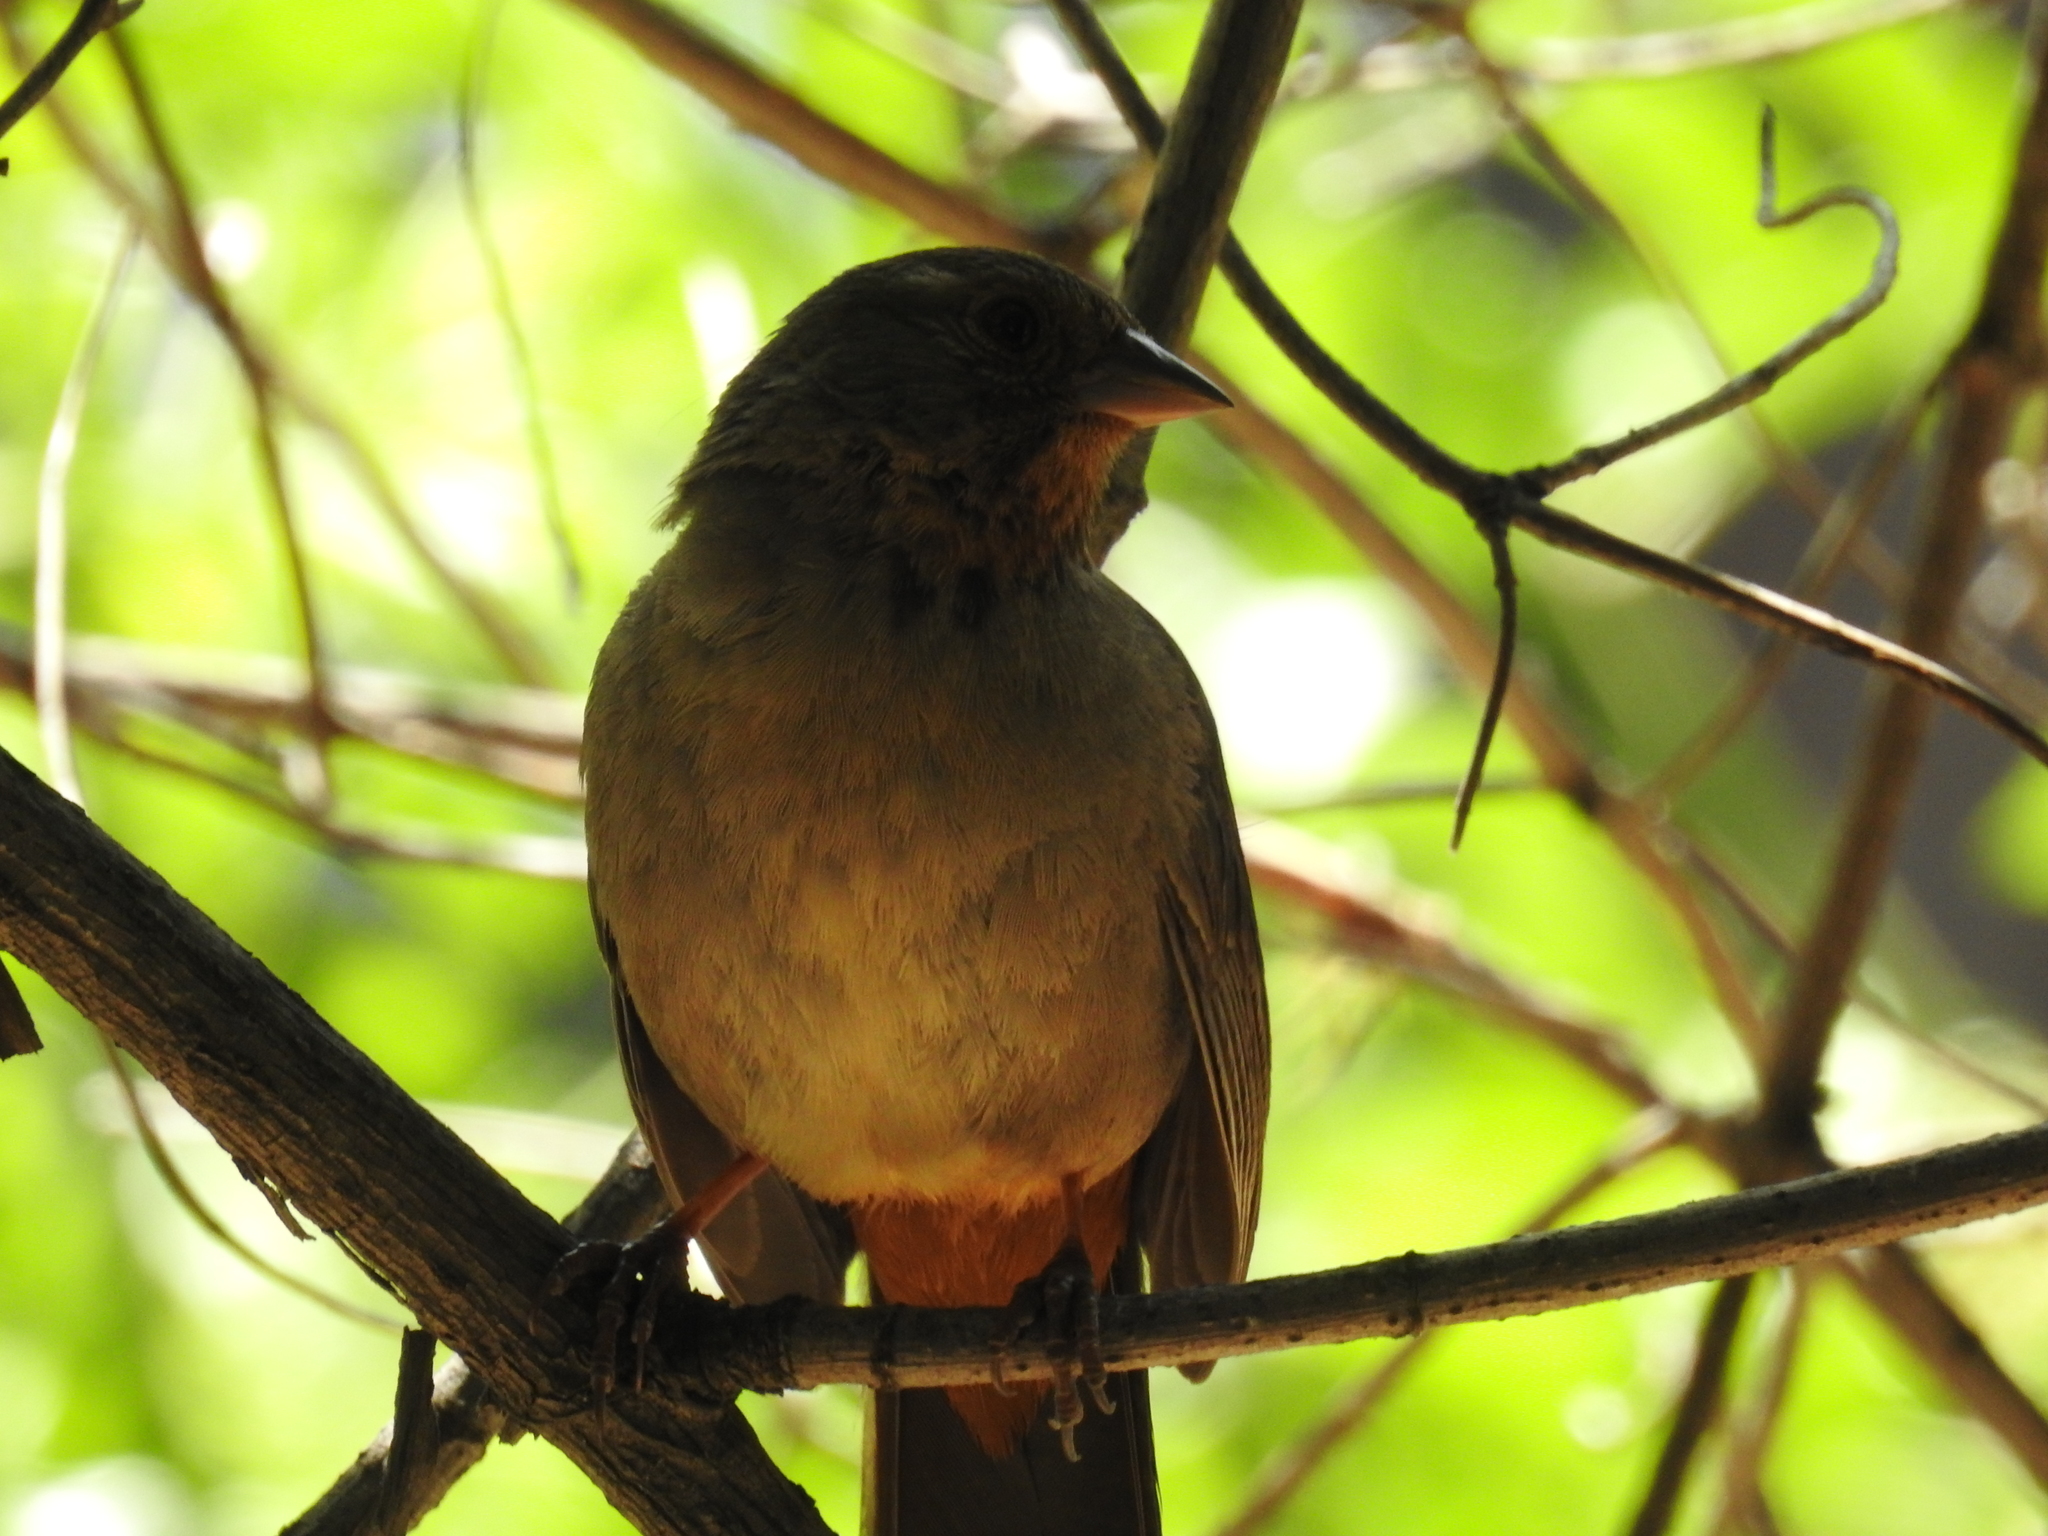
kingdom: Animalia
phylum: Chordata
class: Aves
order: Passeriformes
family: Passerellidae
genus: Melozone
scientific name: Melozone crissalis
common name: California towhee
